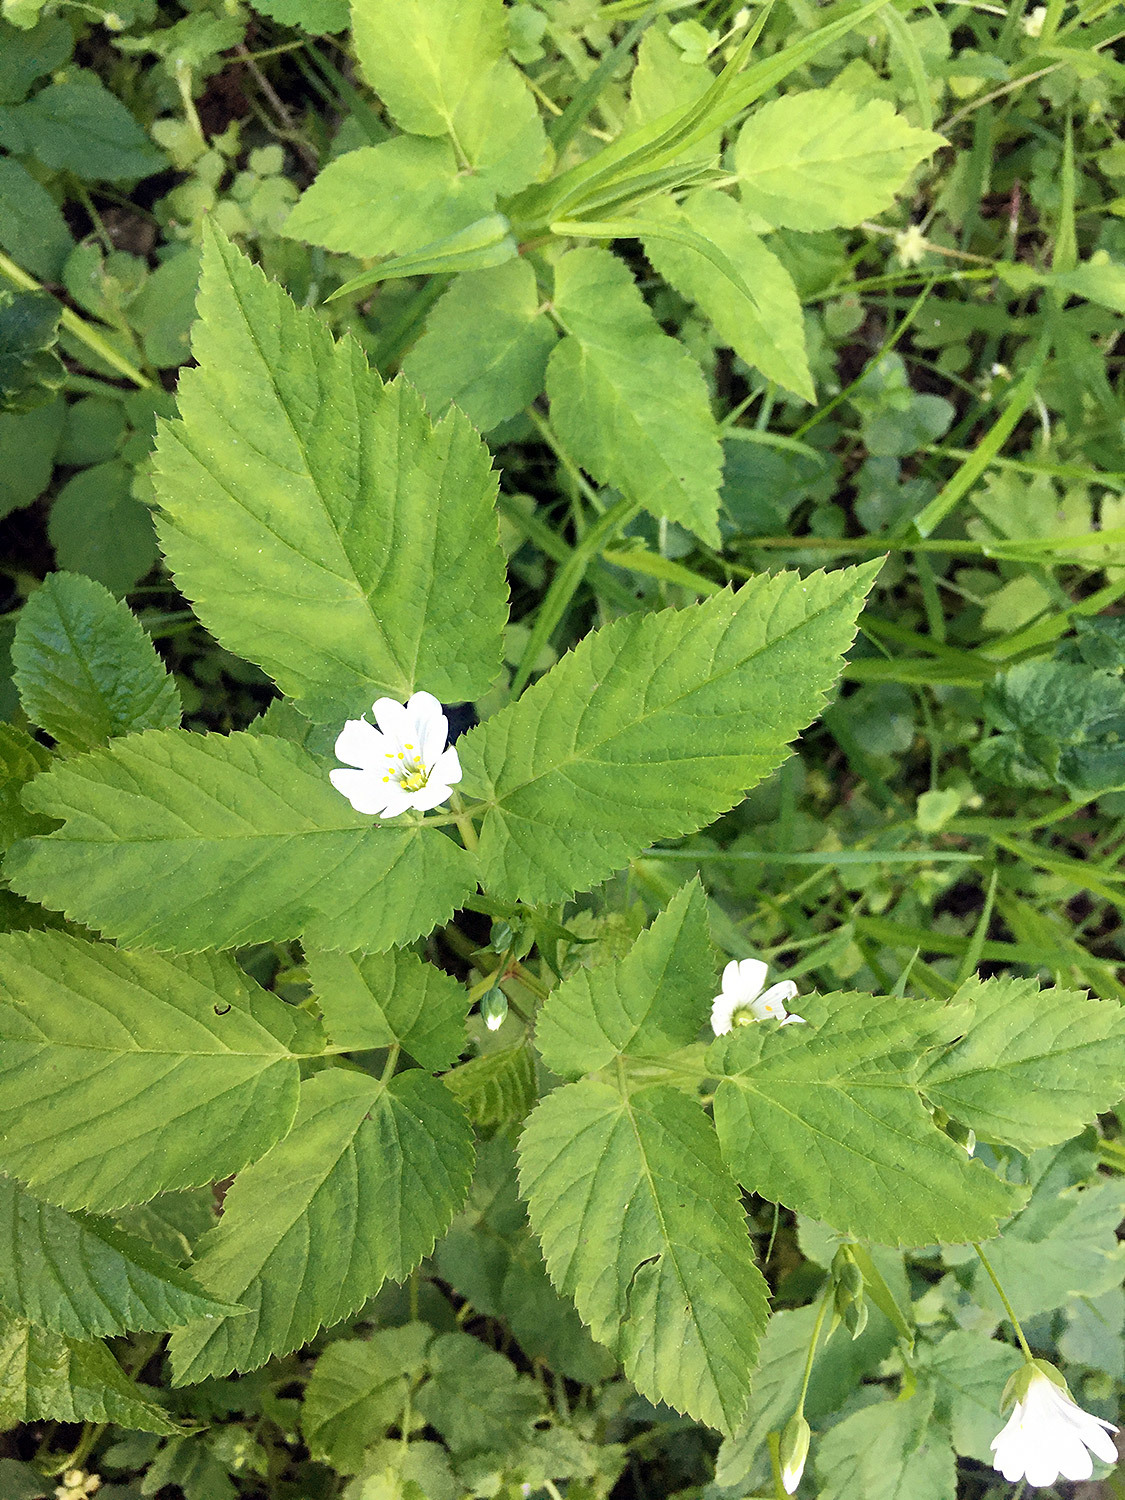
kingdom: Plantae
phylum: Tracheophyta
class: Magnoliopsida
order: Caryophyllales
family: Caryophyllaceae
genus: Rabelera
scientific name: Rabelera holostea
